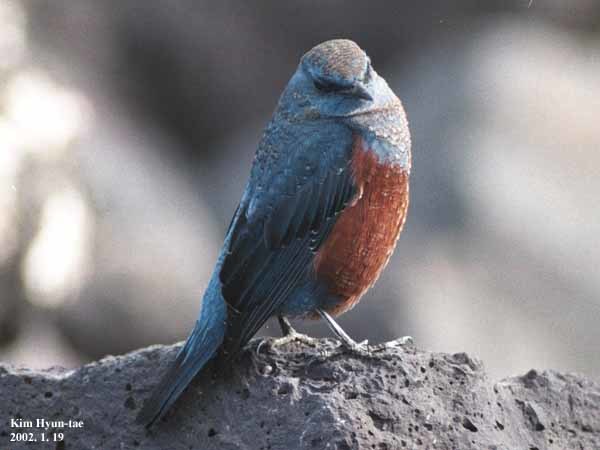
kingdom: Animalia
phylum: Chordata
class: Aves
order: Passeriformes
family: Muscicapidae
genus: Monticola
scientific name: Monticola solitarius
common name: Blue rock thrush
